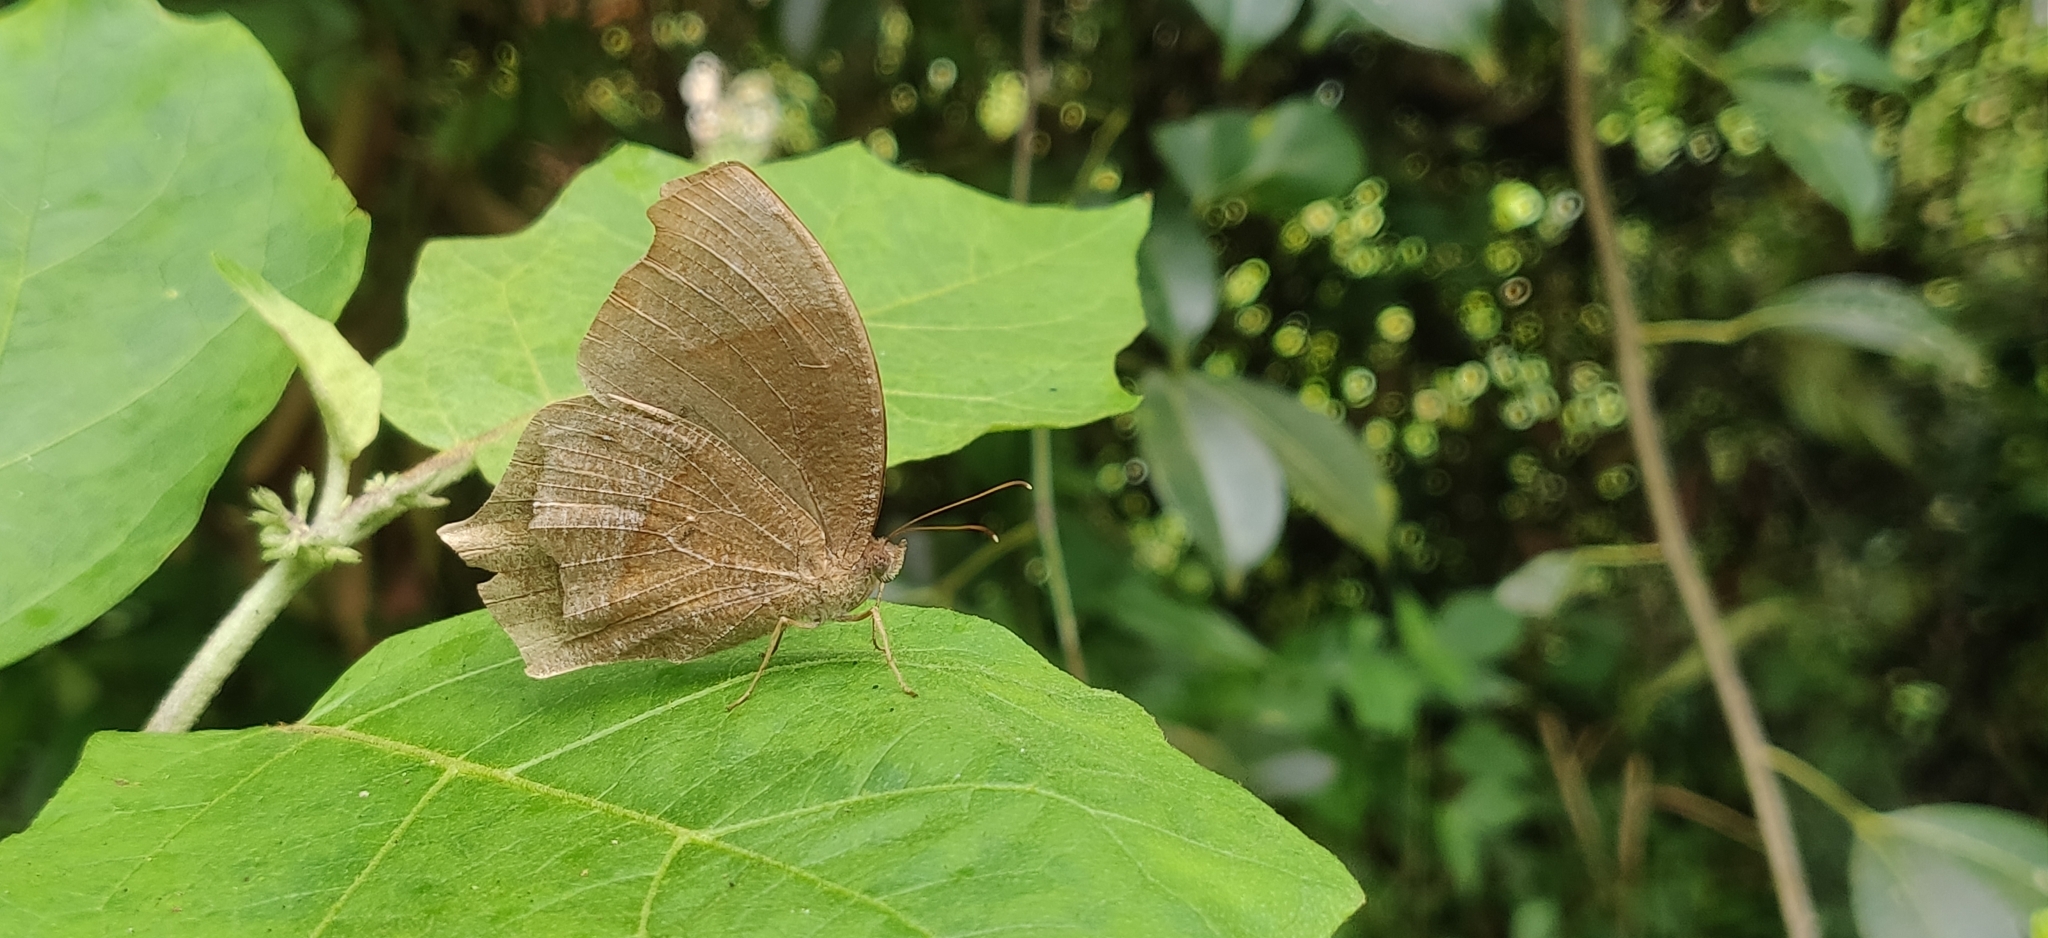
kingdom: Animalia
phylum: Arthropoda
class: Insecta
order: Lepidoptera
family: Nymphalidae
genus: Melanitis
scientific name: Melanitis phedima
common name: Dark evening brown
